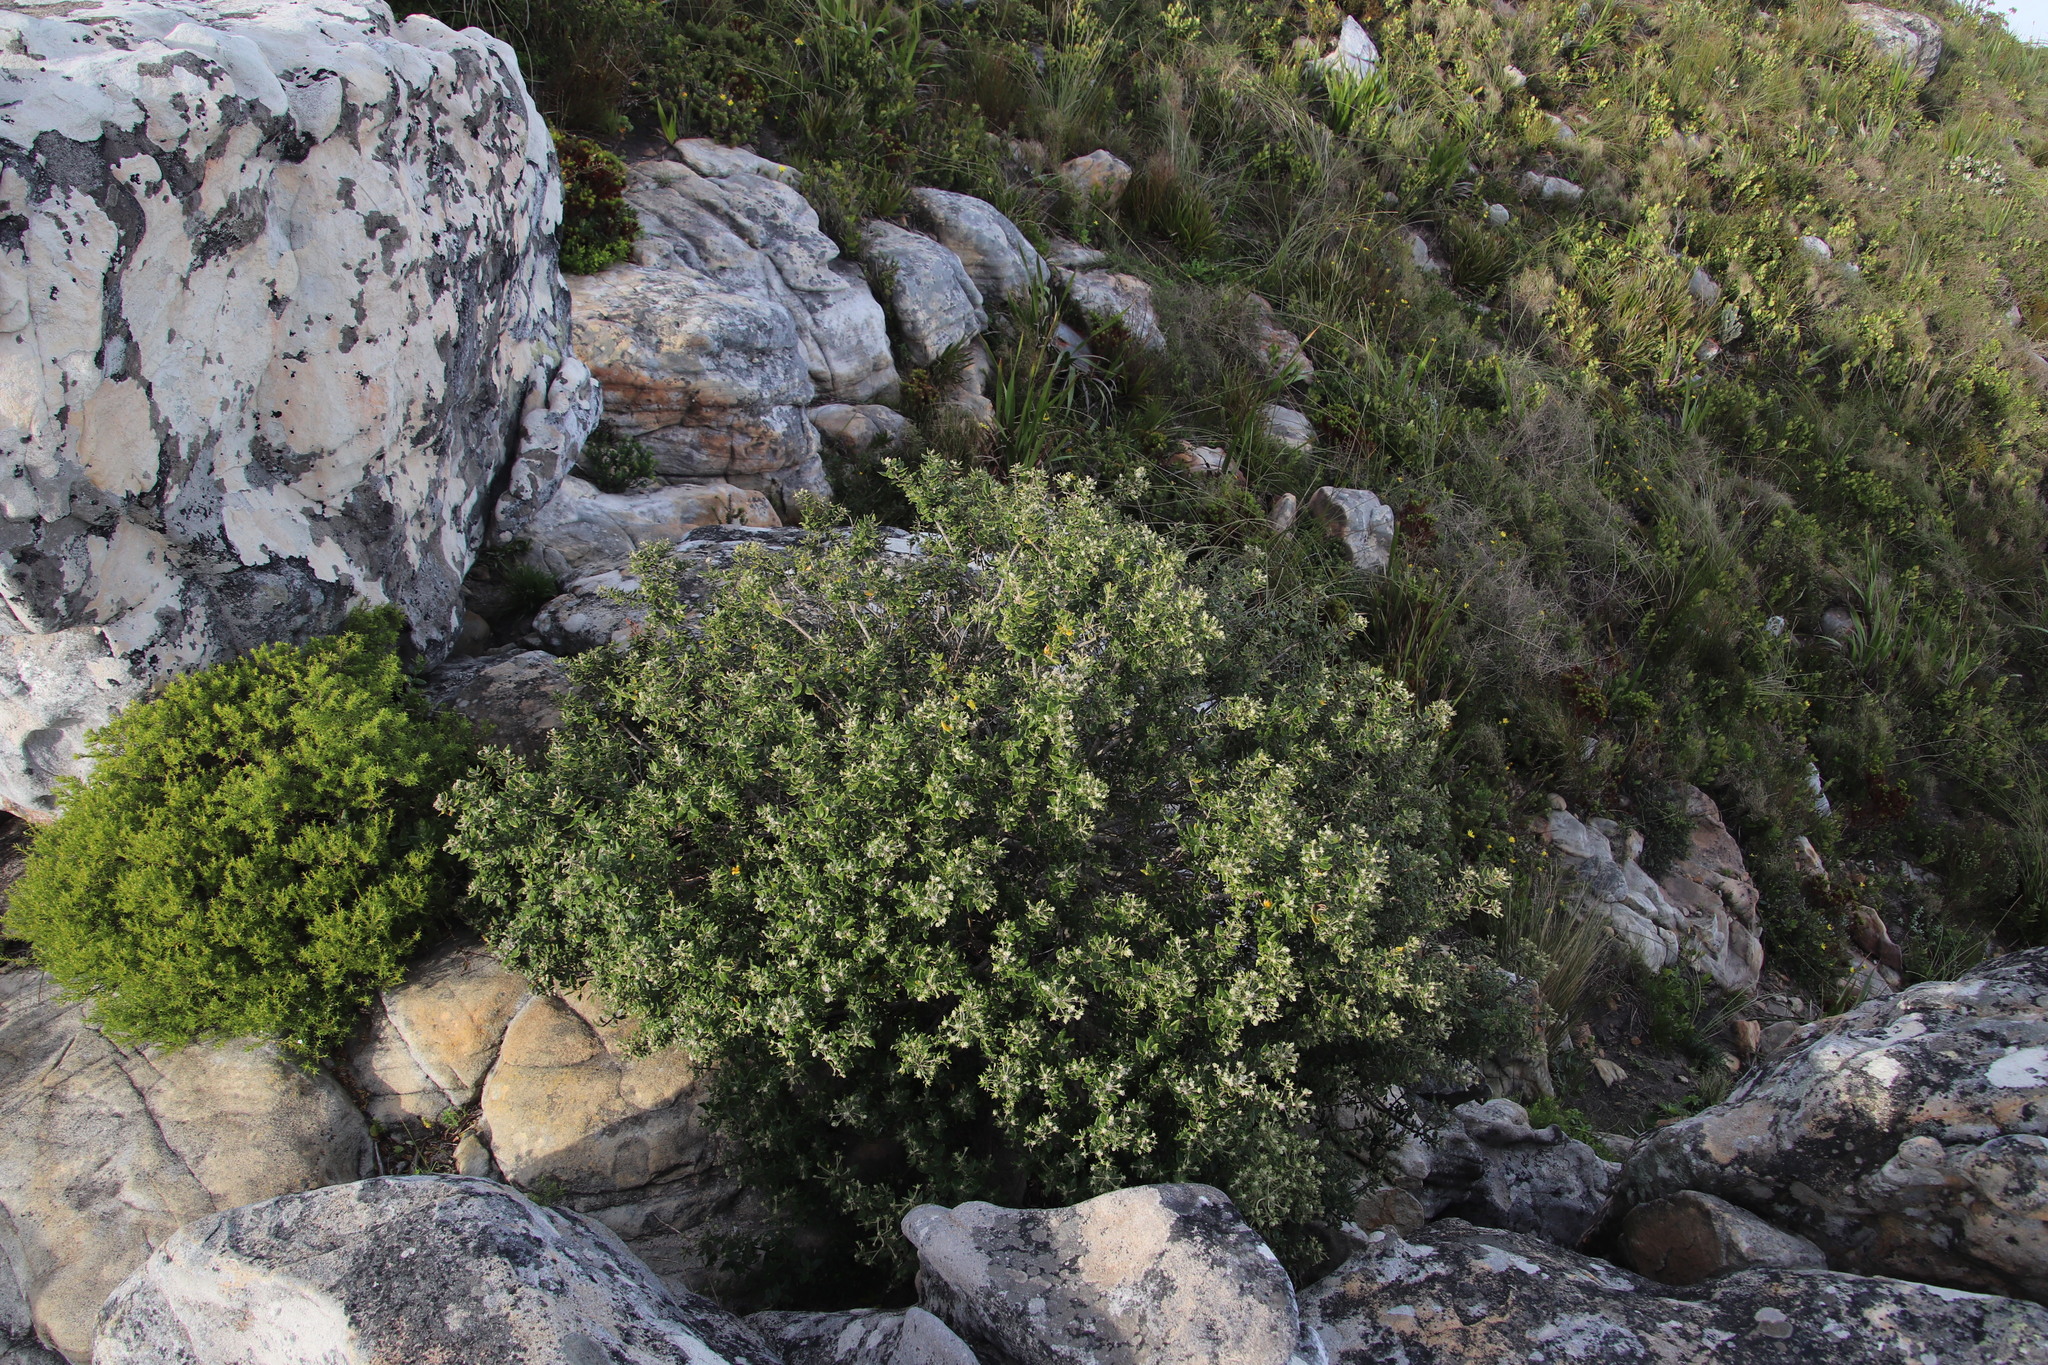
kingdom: Plantae
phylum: Tracheophyta
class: Magnoliopsida
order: Rosales
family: Rhamnaceae
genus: Phylica
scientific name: Phylica buxifolia
